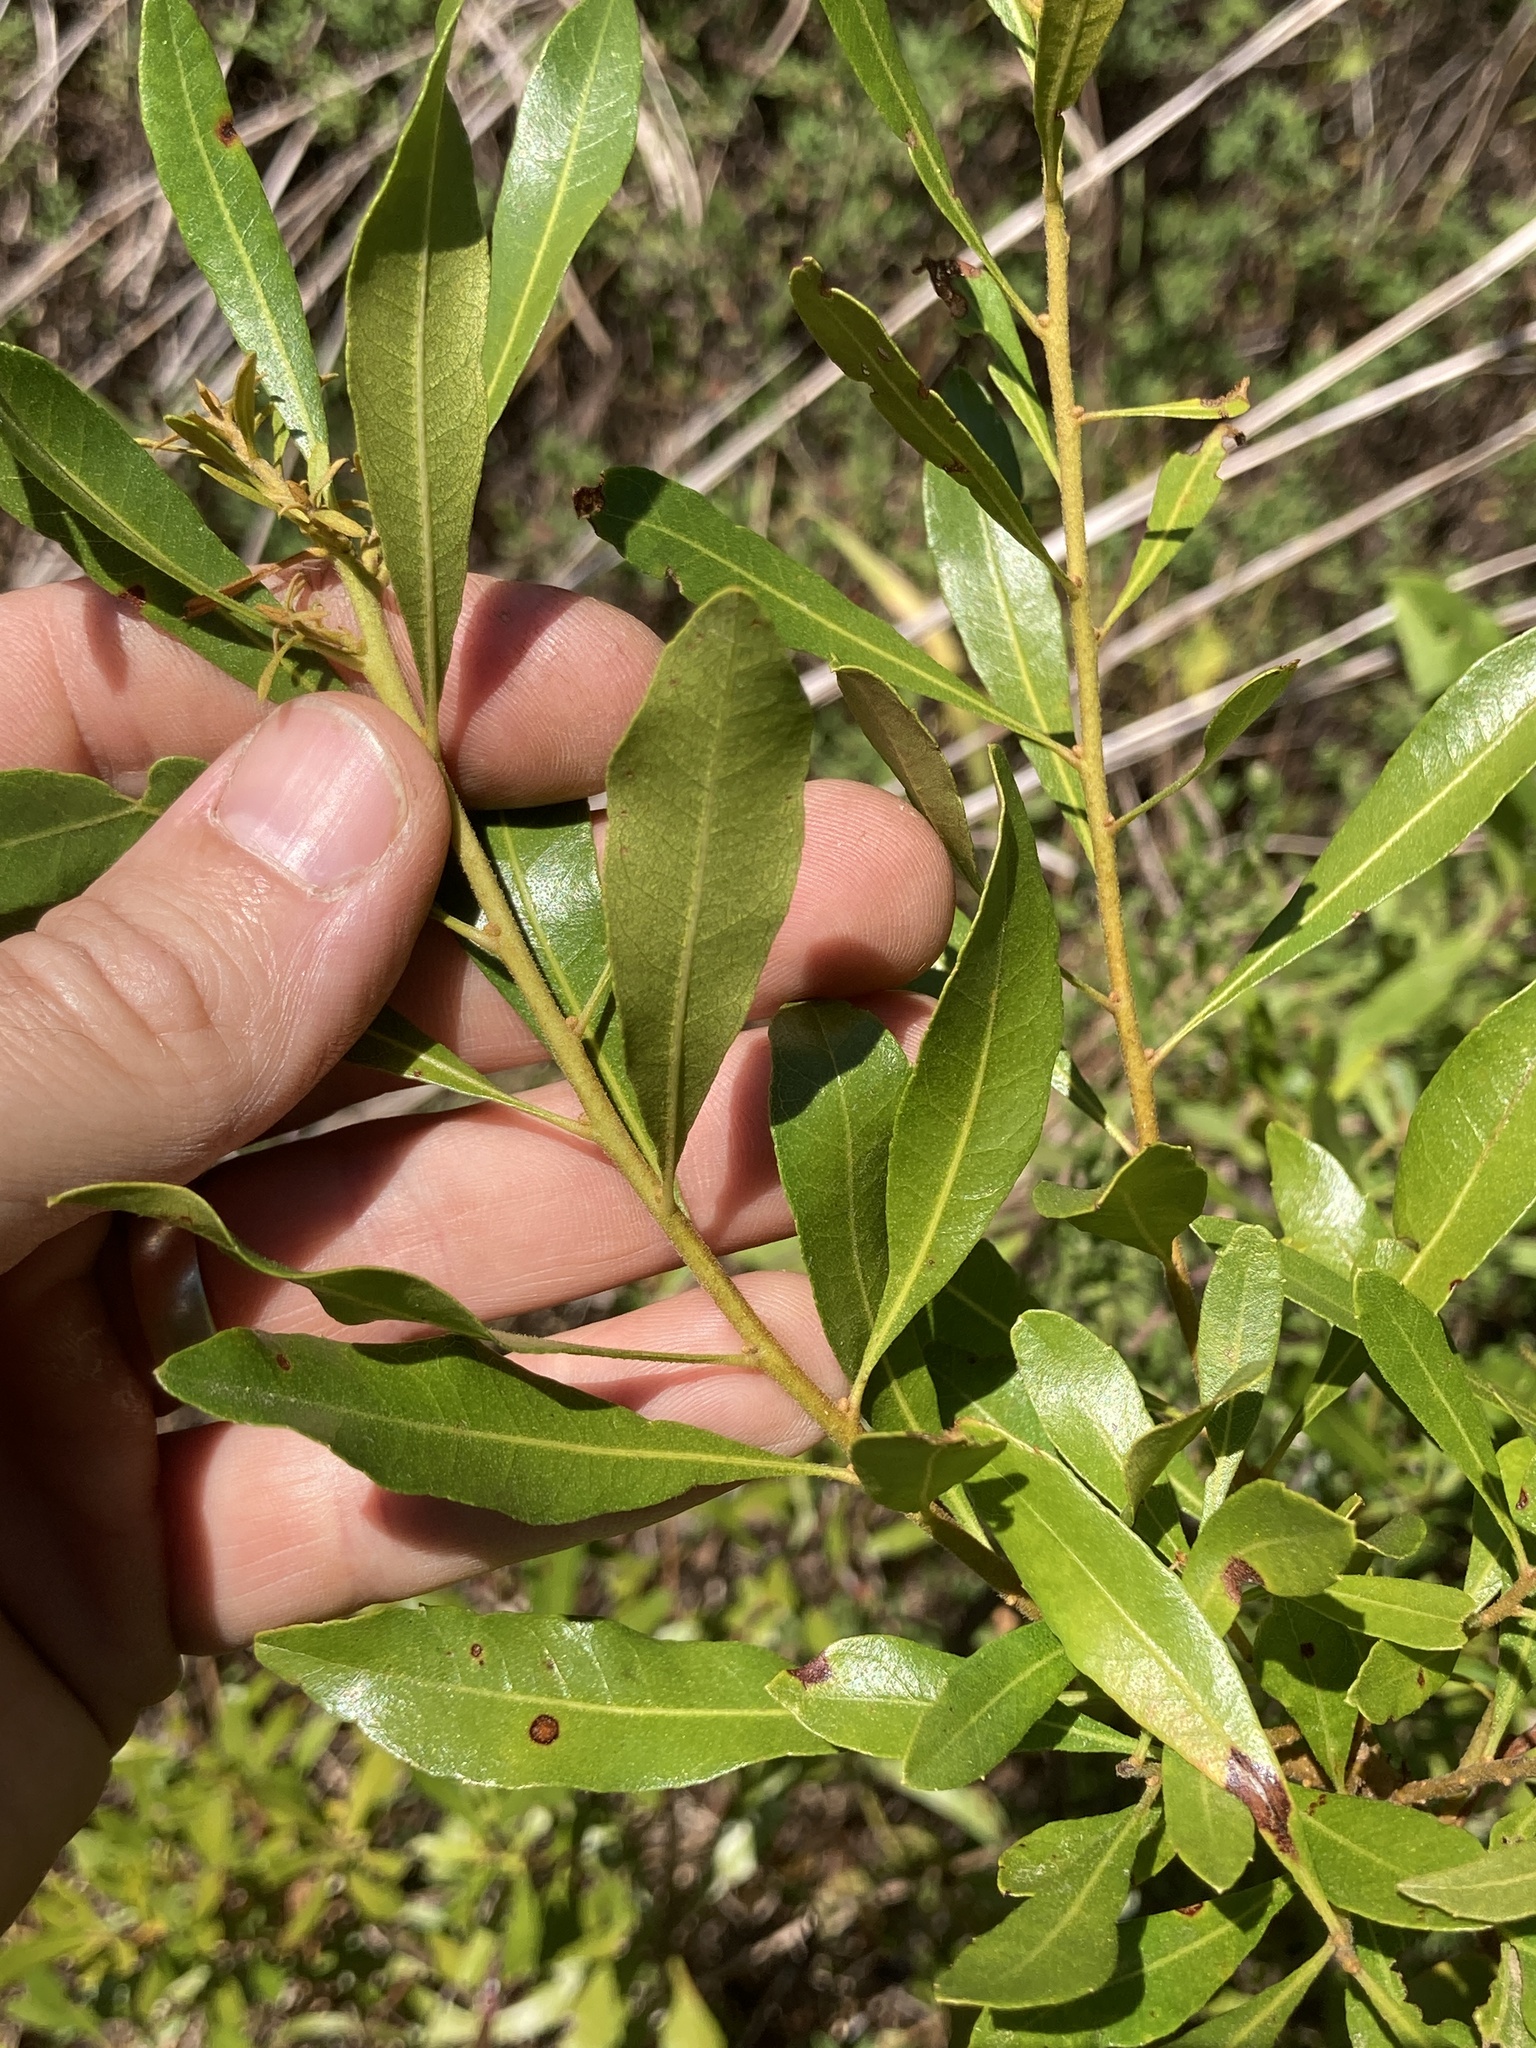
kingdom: Plantae
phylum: Tracheophyta
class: Magnoliopsida
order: Fagales
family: Myricaceae
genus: Morella
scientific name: Morella cerifera
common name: Wax myrtle
